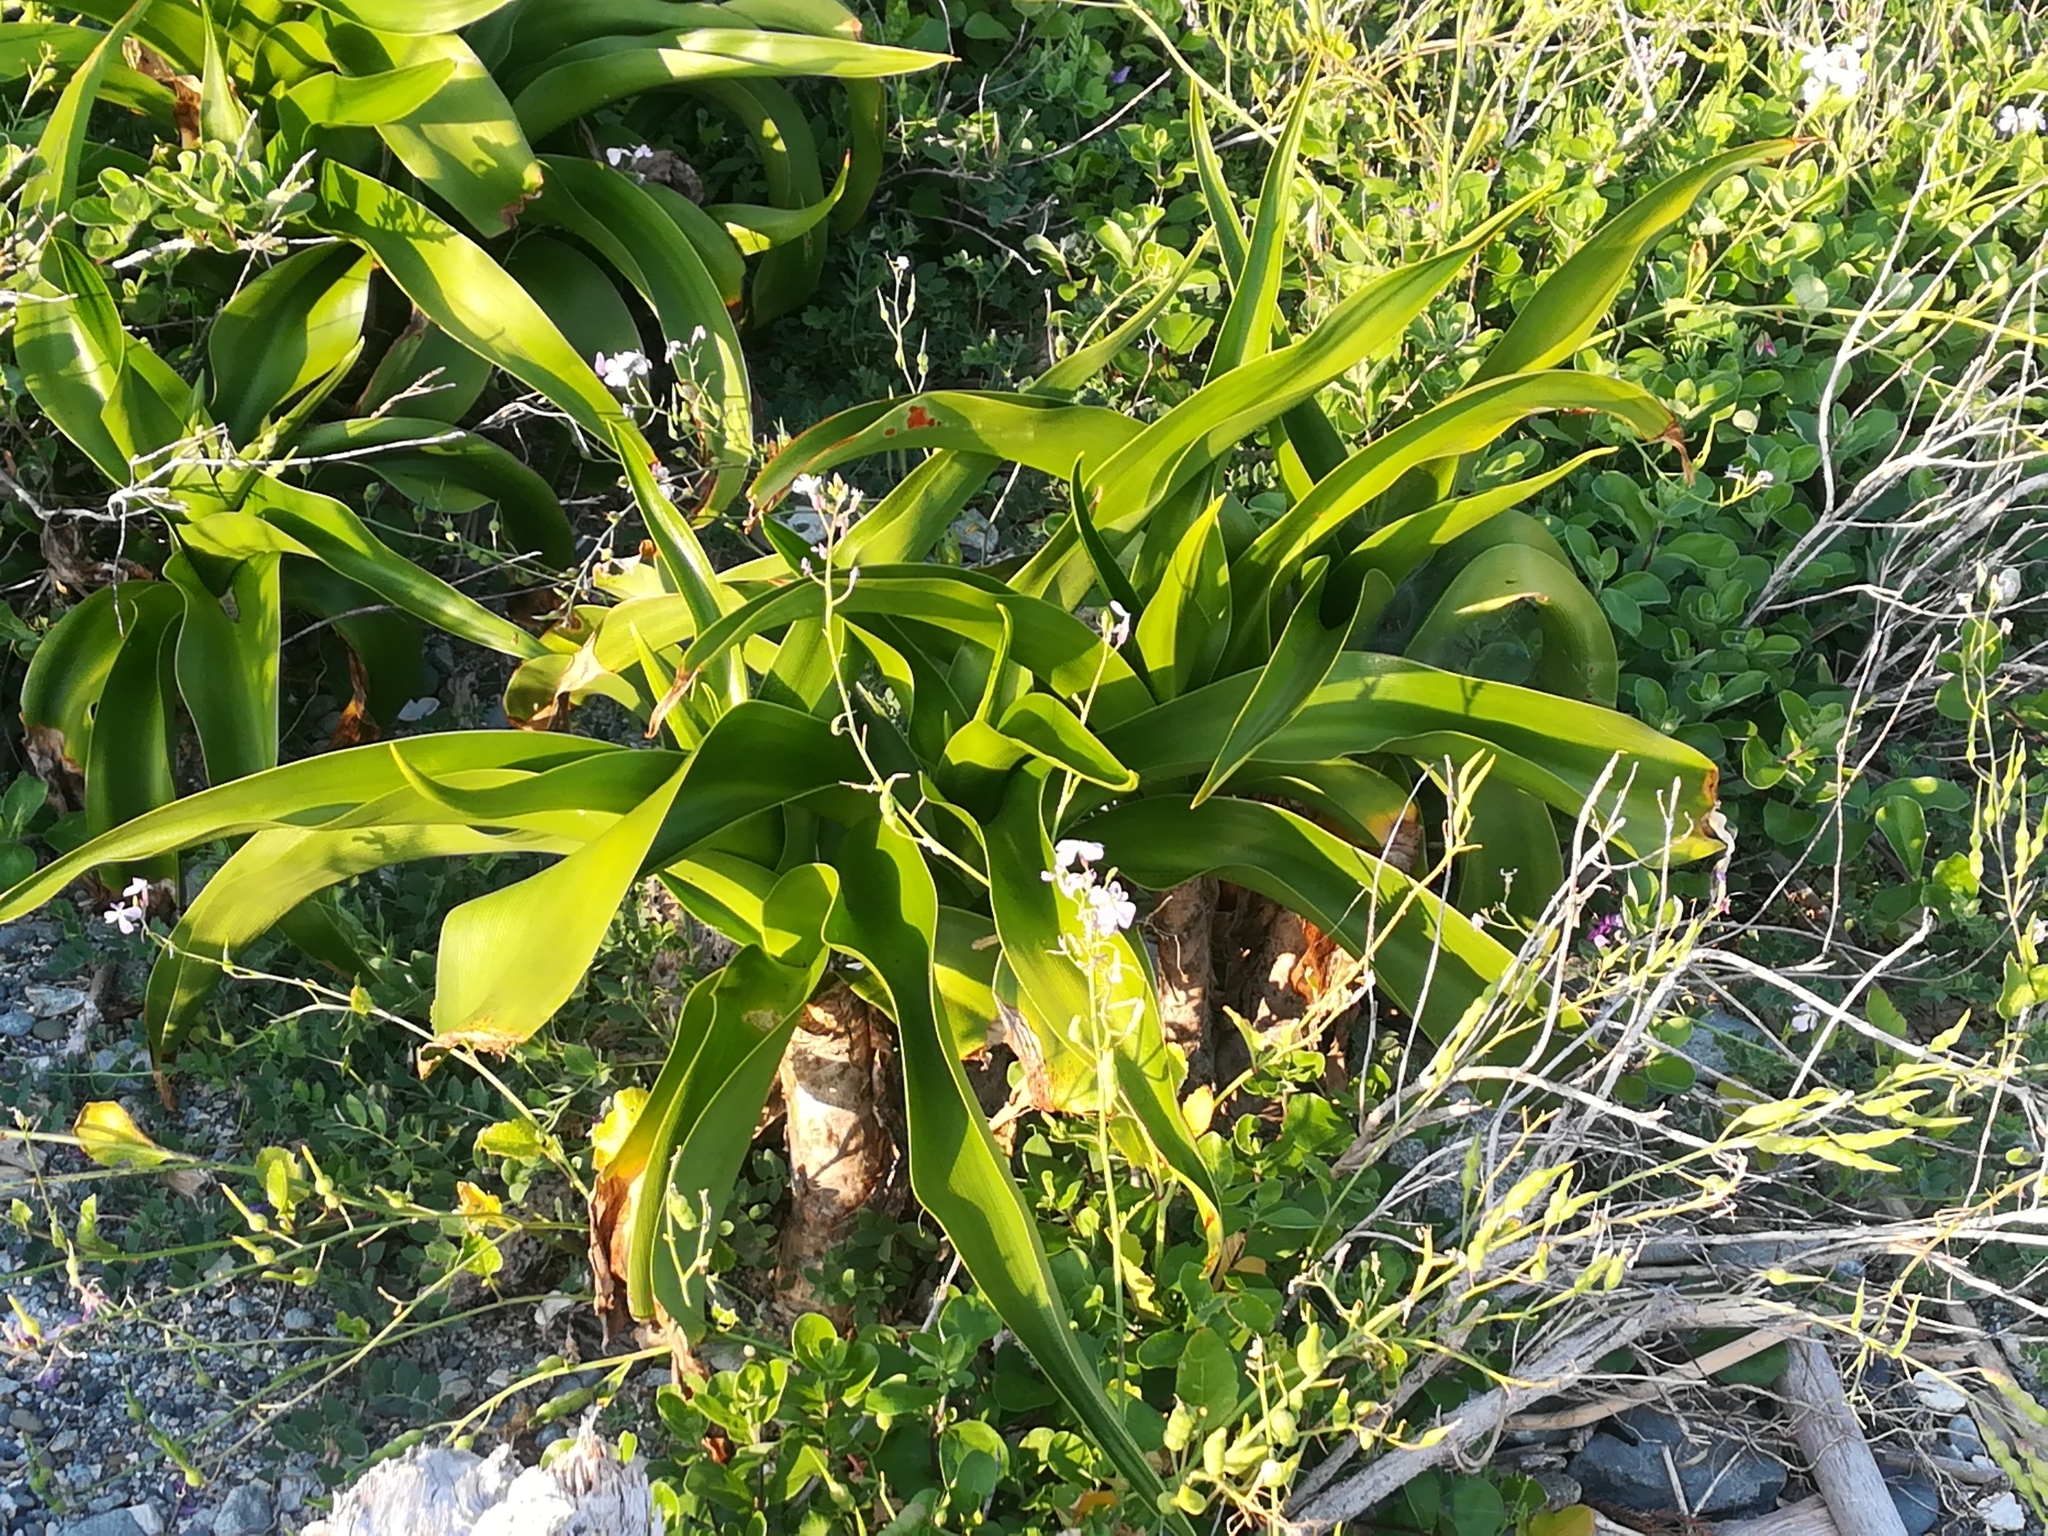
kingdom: Plantae
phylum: Tracheophyta
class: Liliopsida
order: Asparagales
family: Amaryllidaceae
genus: Crinum
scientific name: Crinum asiaticum
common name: Poisonbulb
